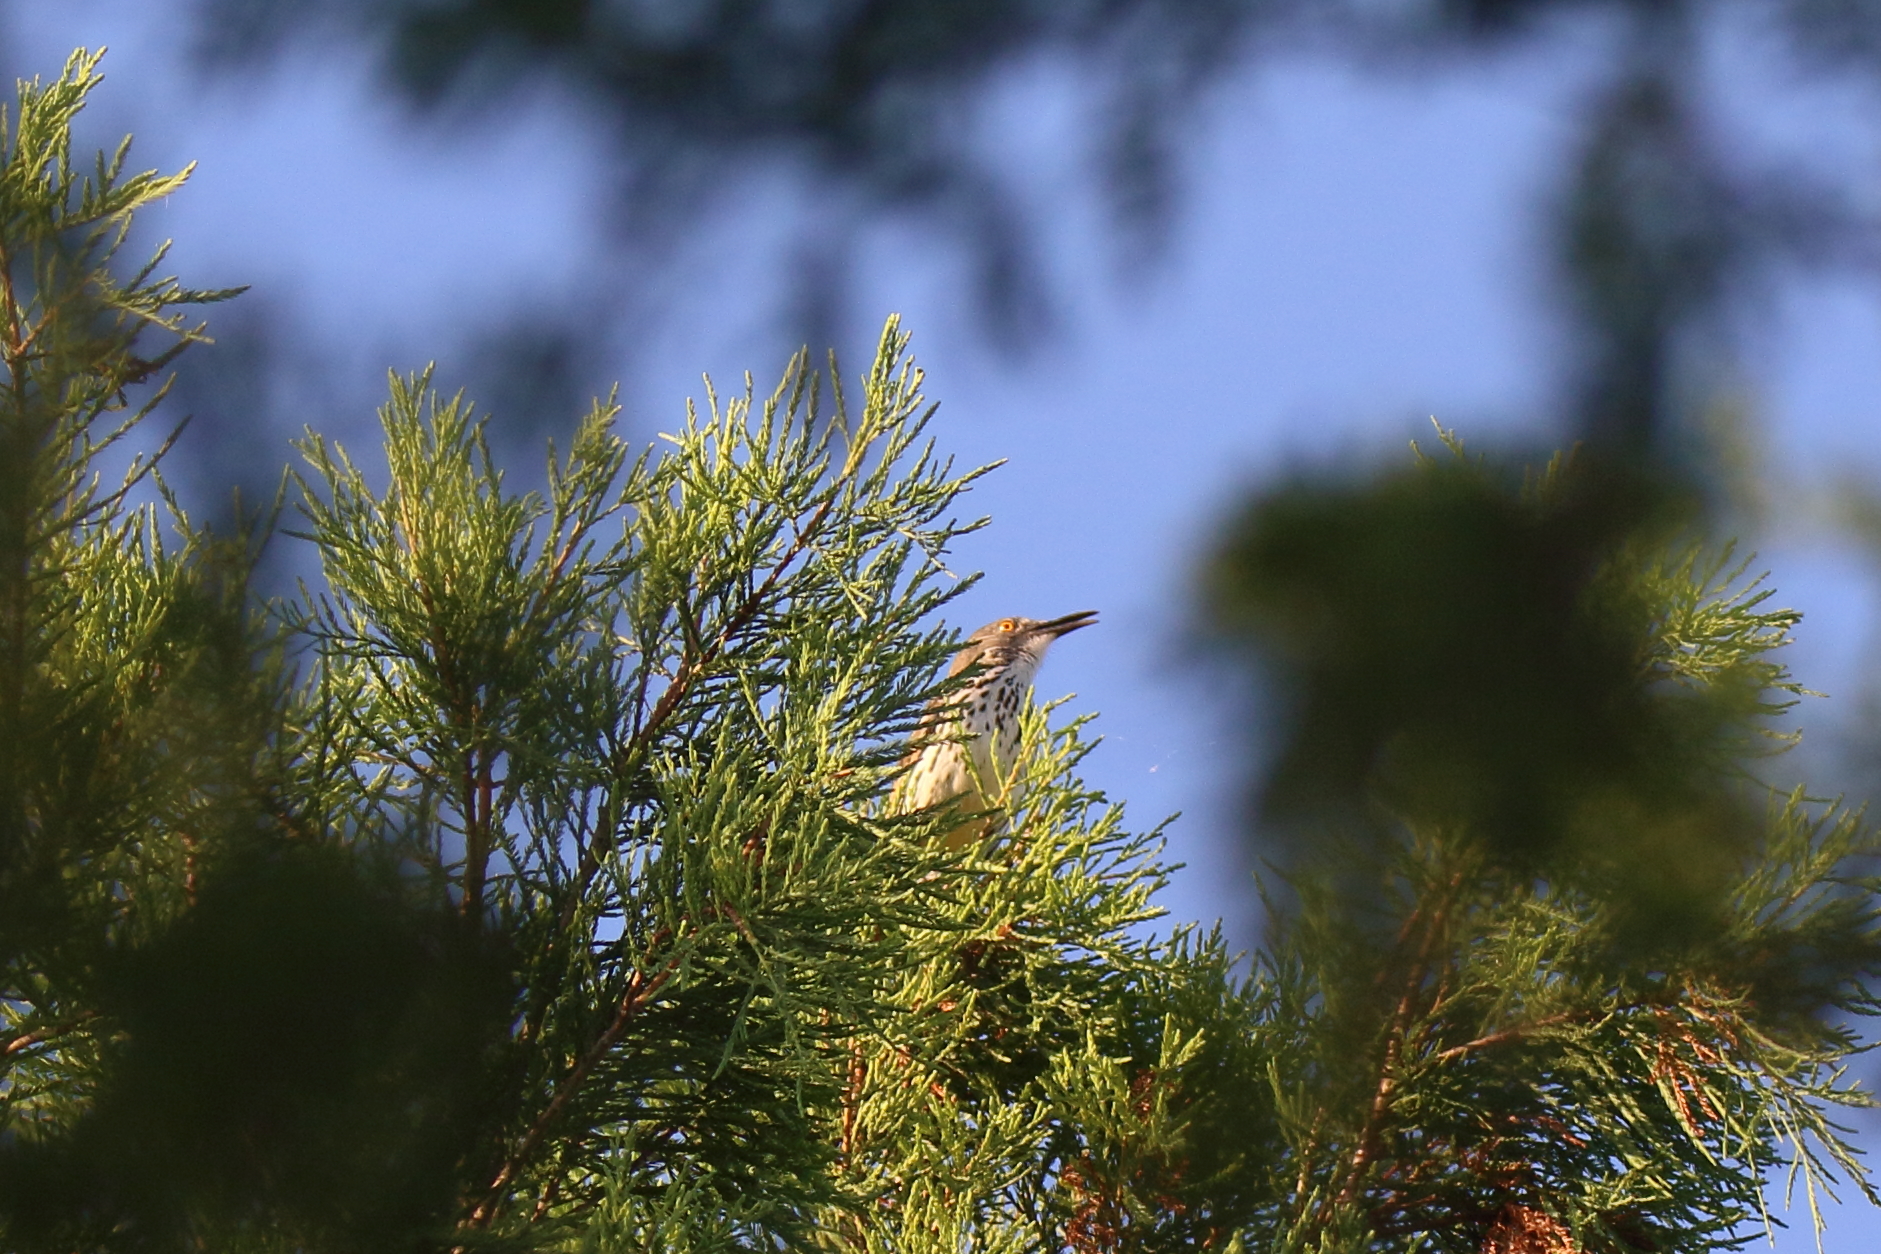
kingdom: Animalia
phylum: Chordata
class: Aves
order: Passeriformes
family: Mimidae
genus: Toxostoma
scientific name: Toxostoma curvirostre
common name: Curve-billed thrasher
